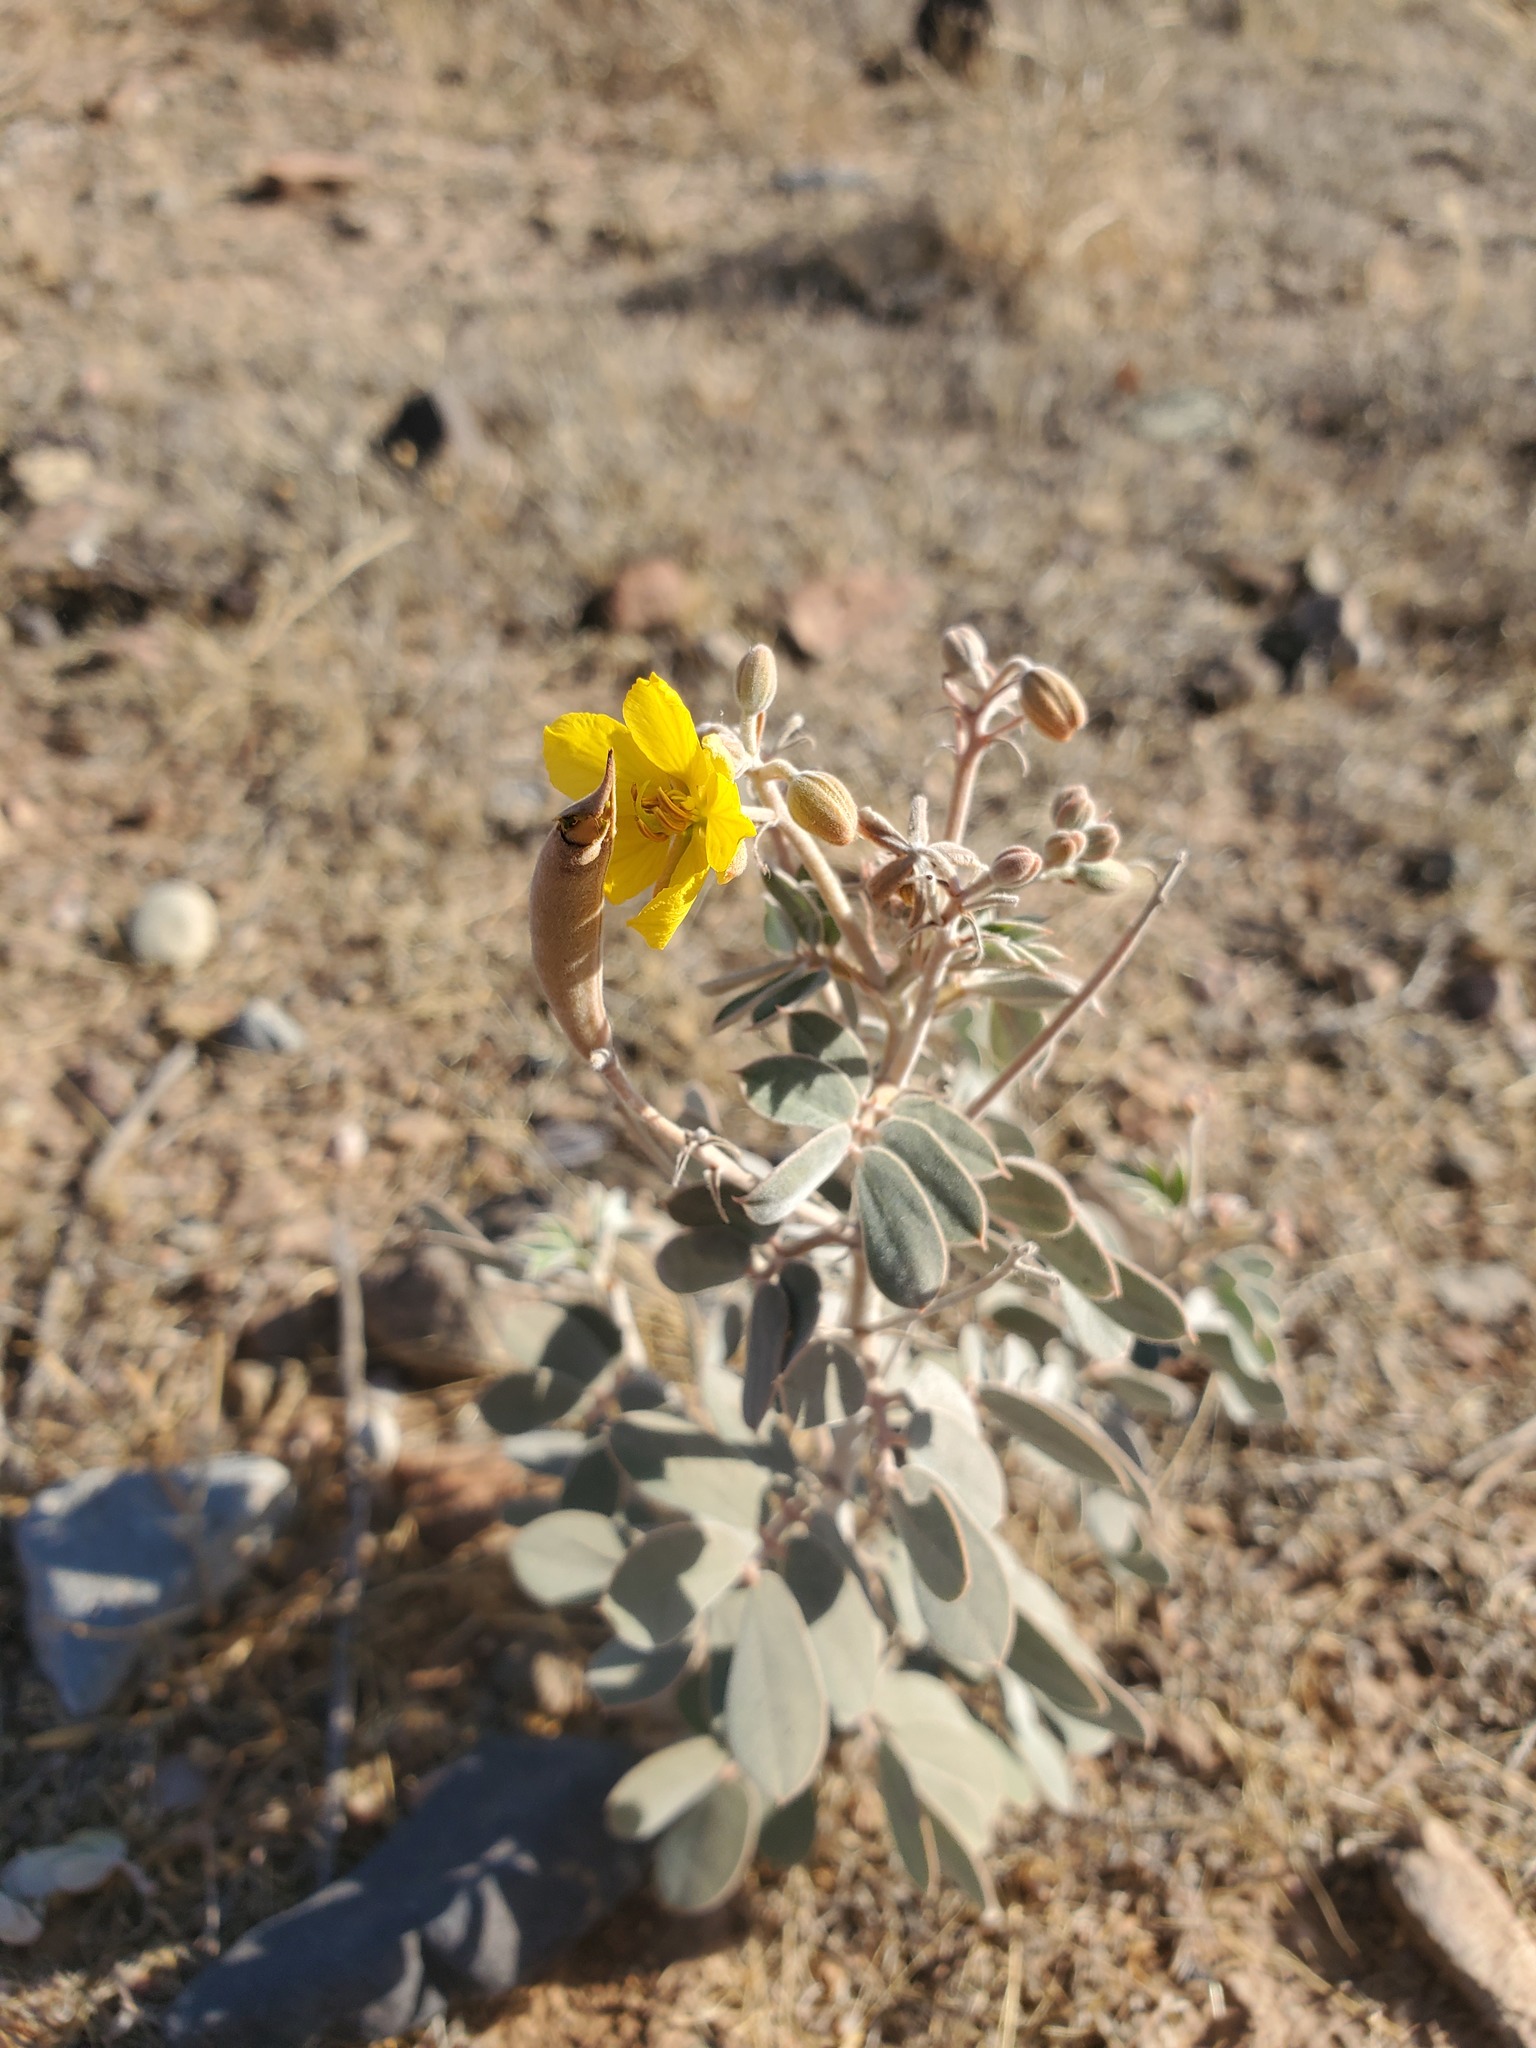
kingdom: Plantae
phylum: Tracheophyta
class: Magnoliopsida
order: Fabales
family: Fabaceae
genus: Senna
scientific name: Senna covesii
